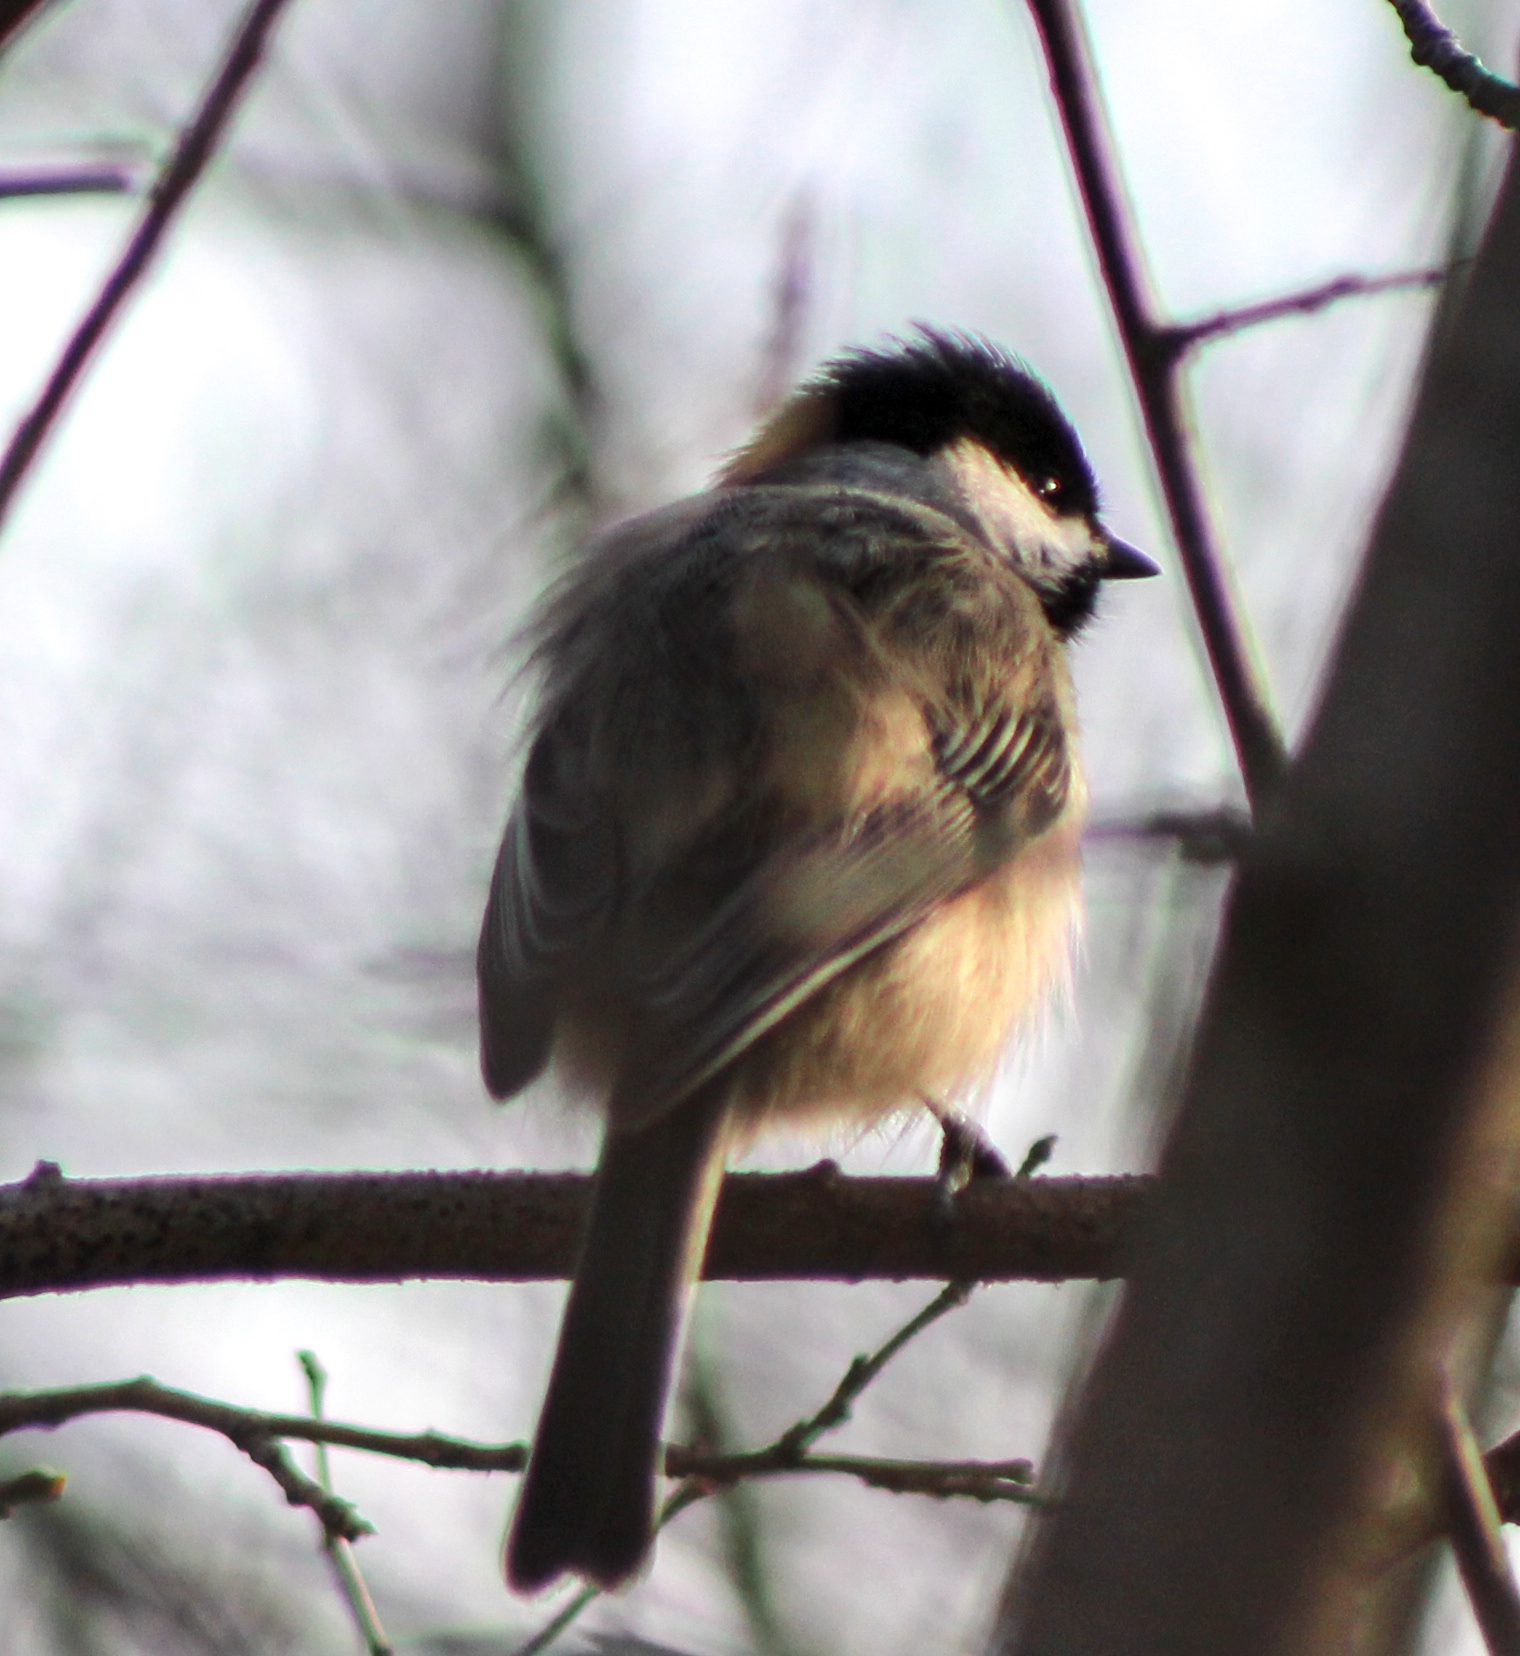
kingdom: Animalia
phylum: Chordata
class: Aves
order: Passeriformes
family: Paridae
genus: Poecile
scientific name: Poecile atricapillus
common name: Black-capped chickadee
